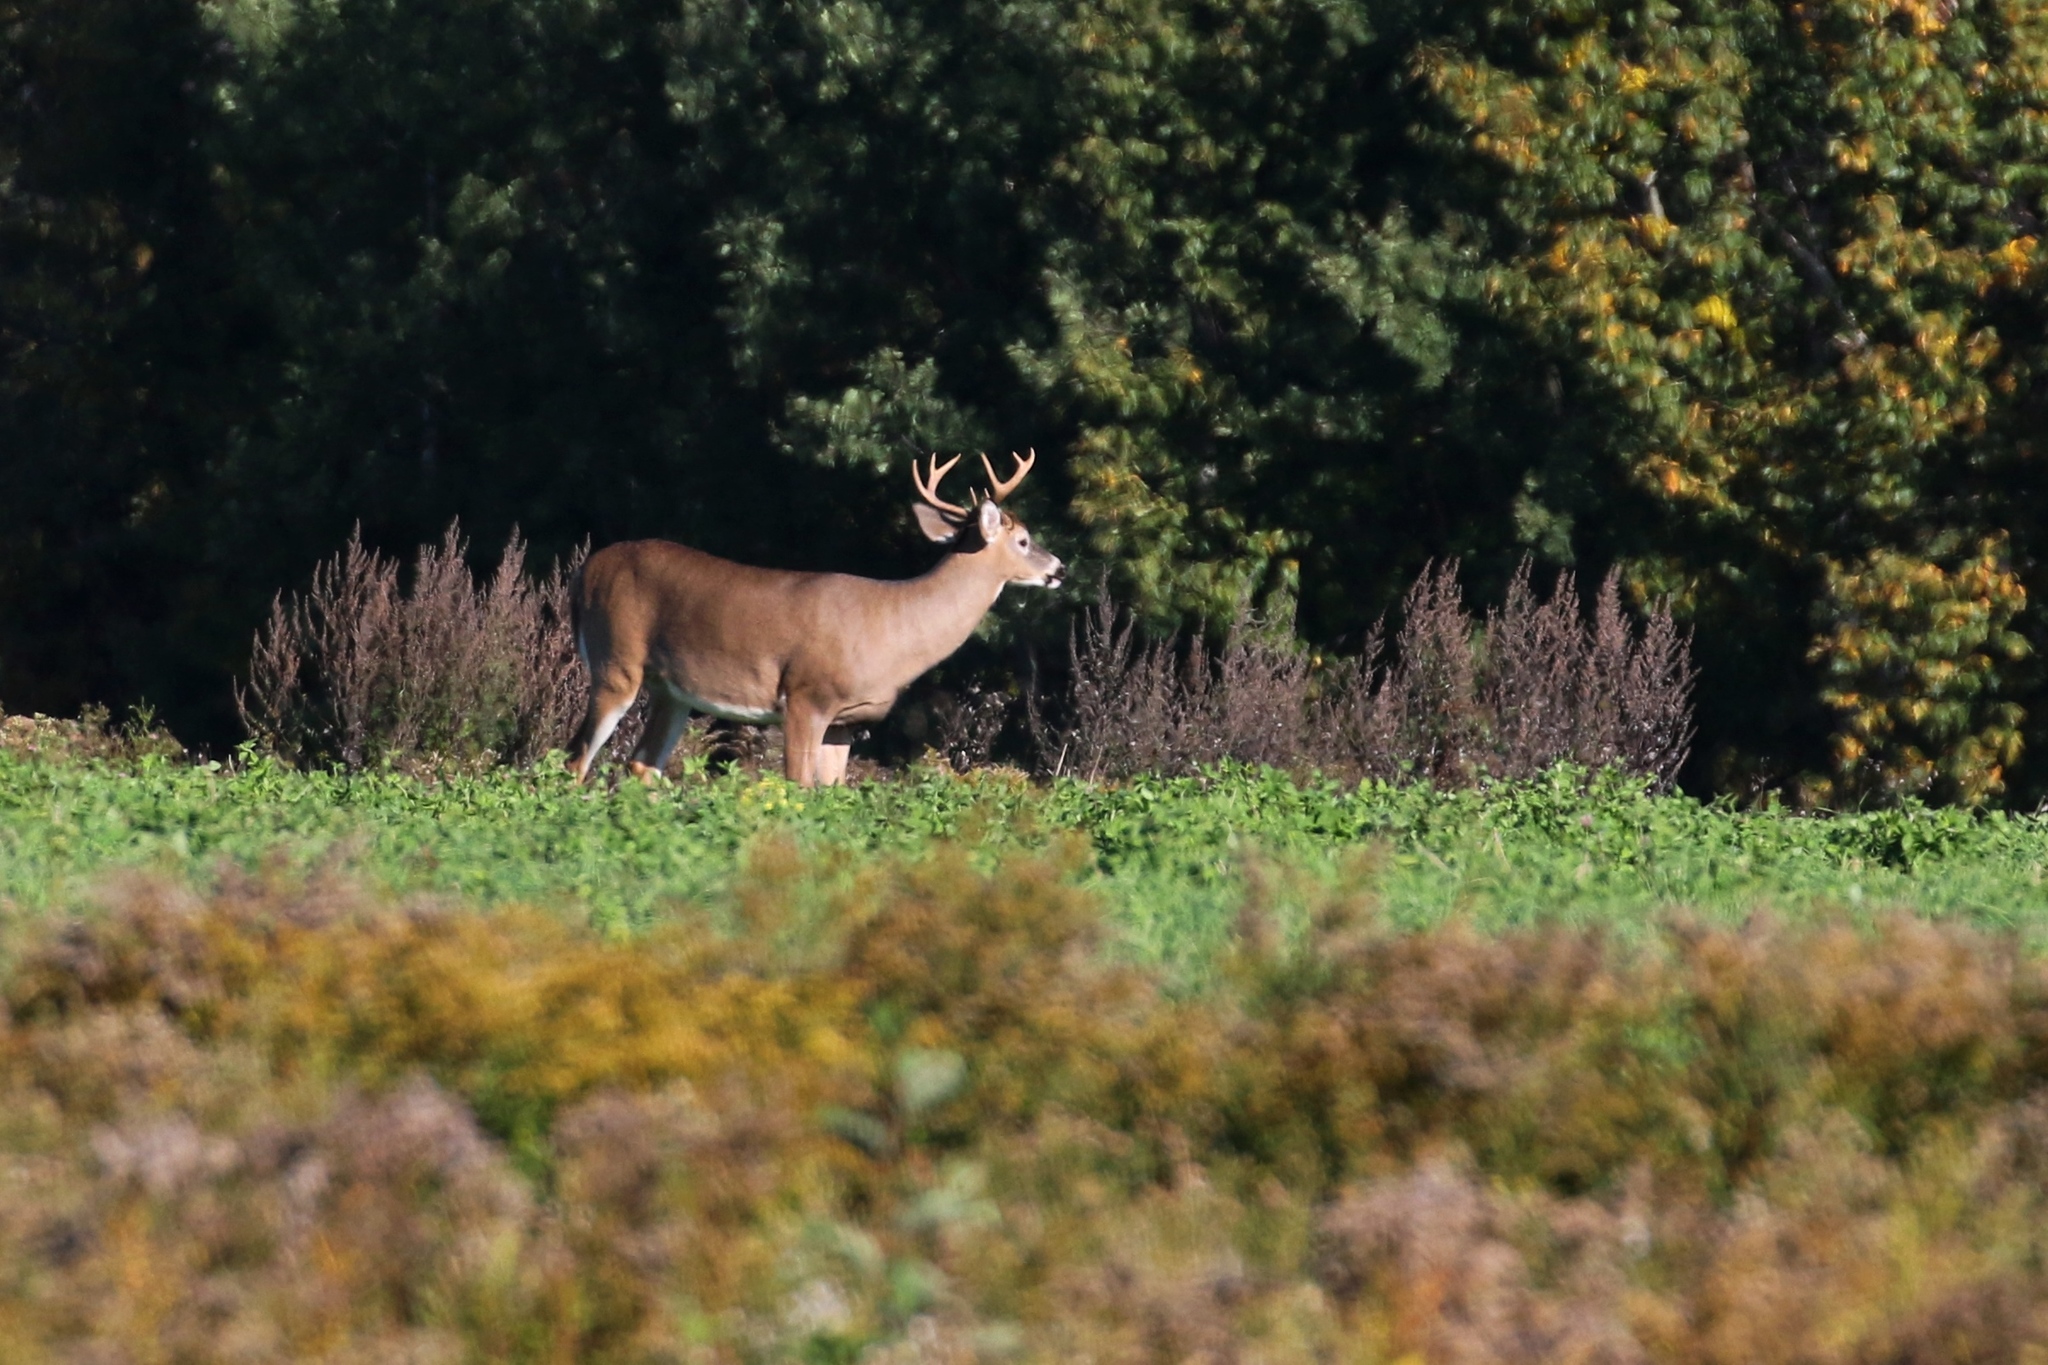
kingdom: Animalia
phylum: Chordata
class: Mammalia
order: Artiodactyla
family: Cervidae
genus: Odocoileus
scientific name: Odocoileus virginianus
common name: White-tailed deer
